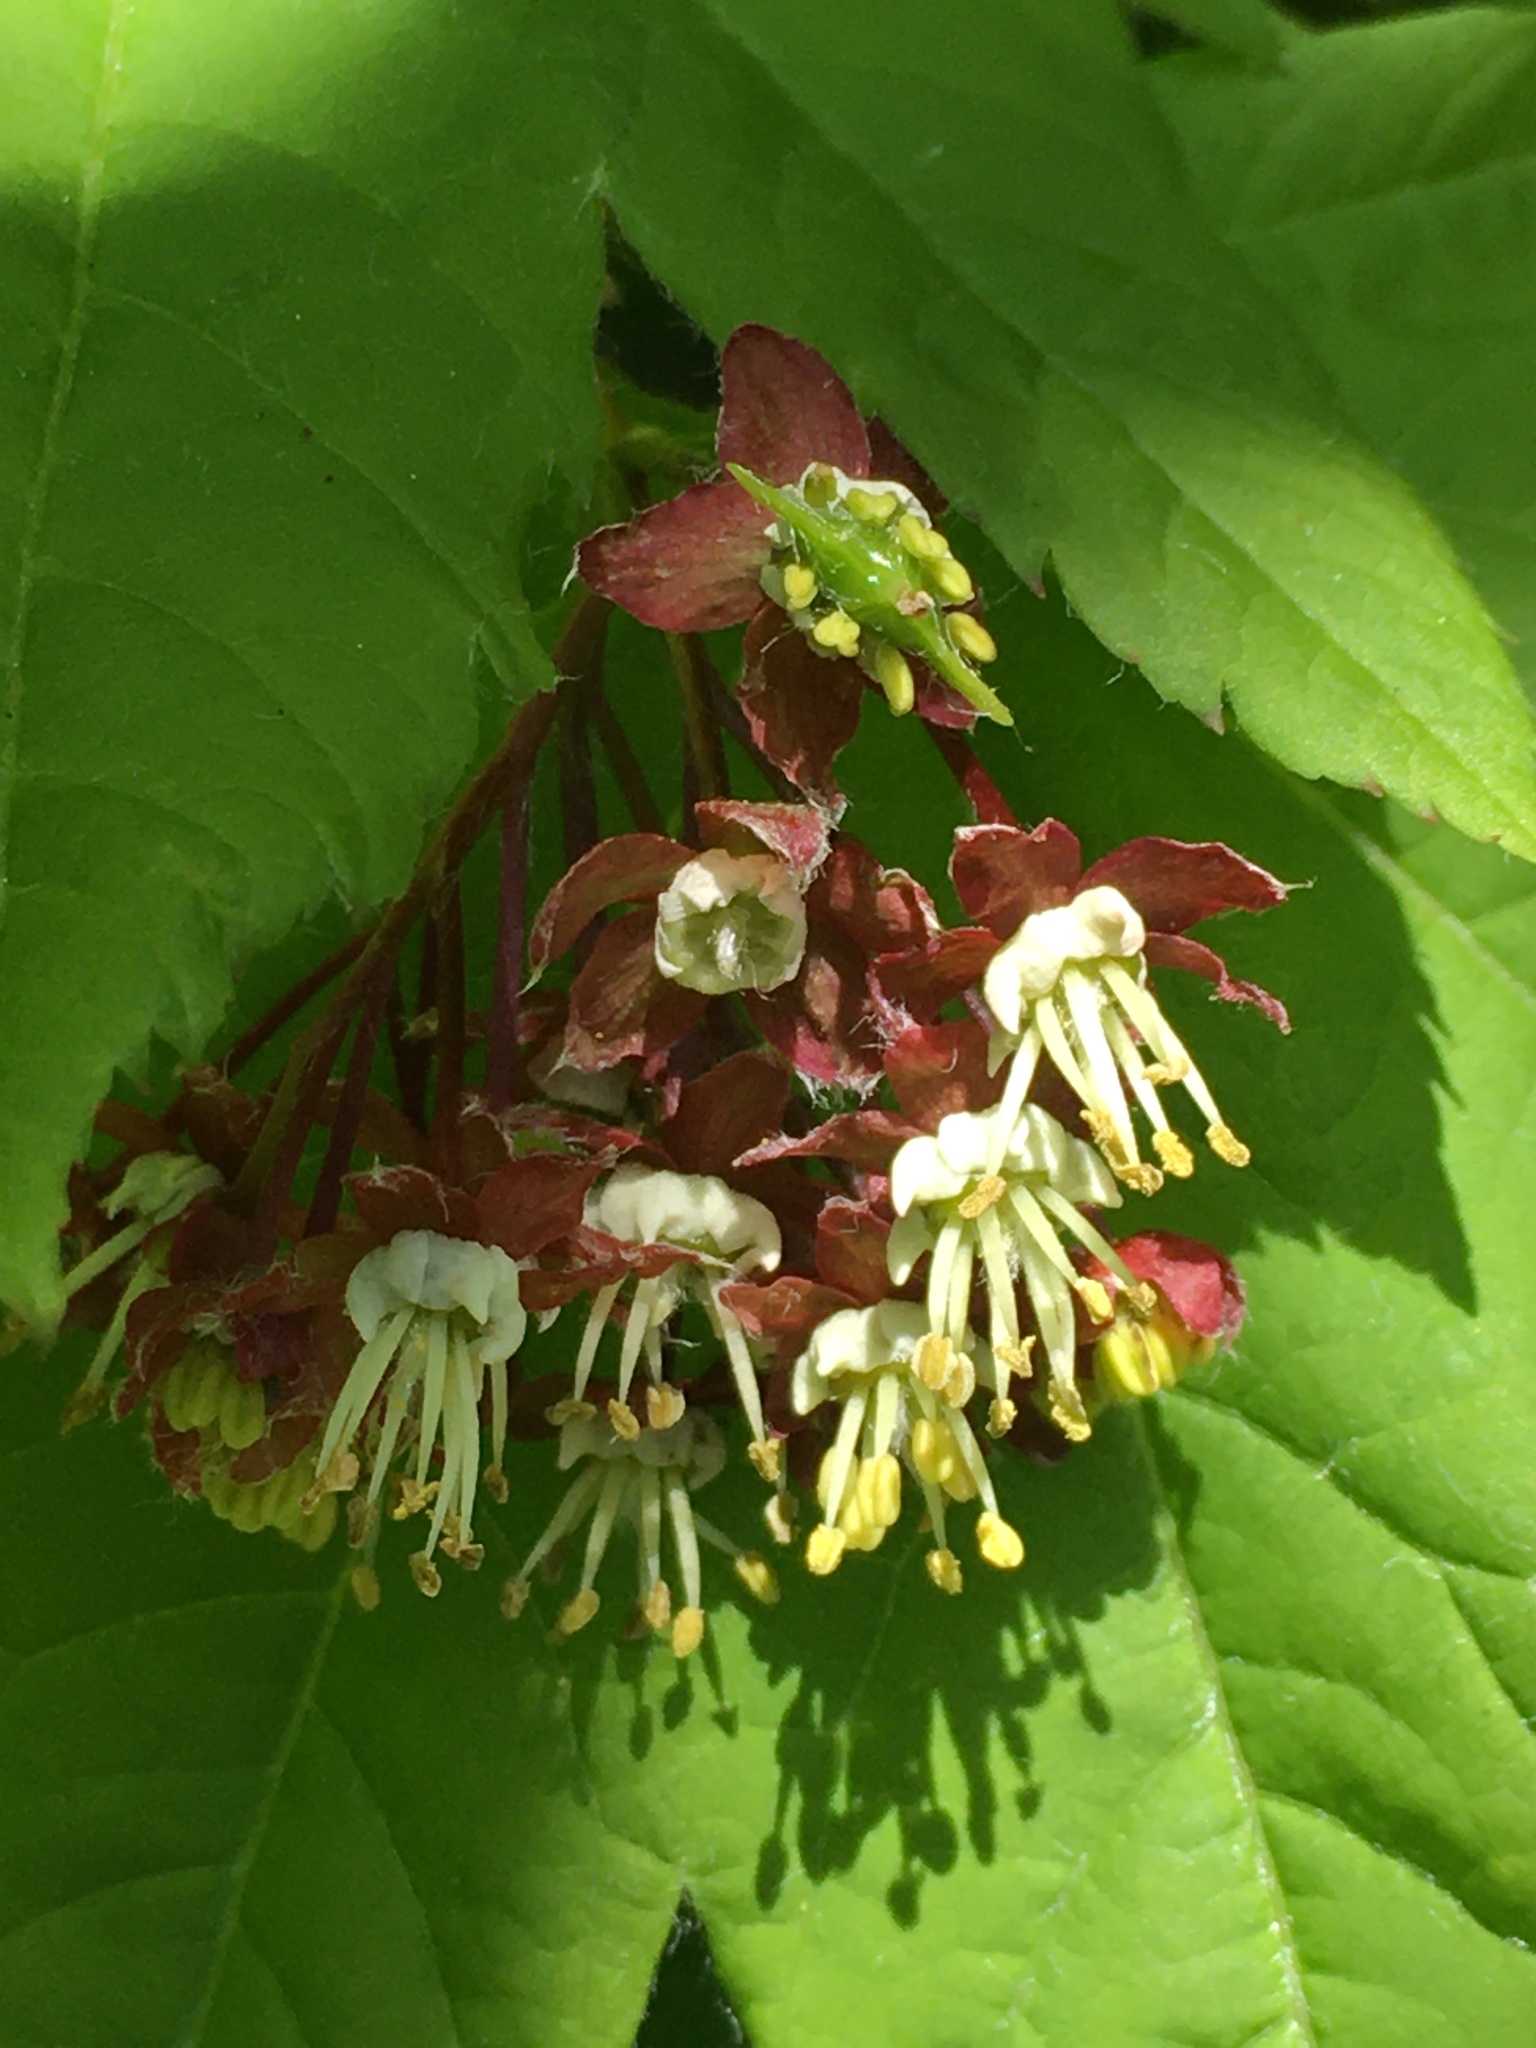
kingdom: Plantae
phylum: Tracheophyta
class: Magnoliopsida
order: Sapindales
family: Sapindaceae
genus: Acer
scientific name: Acer circinatum
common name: Vine maple
